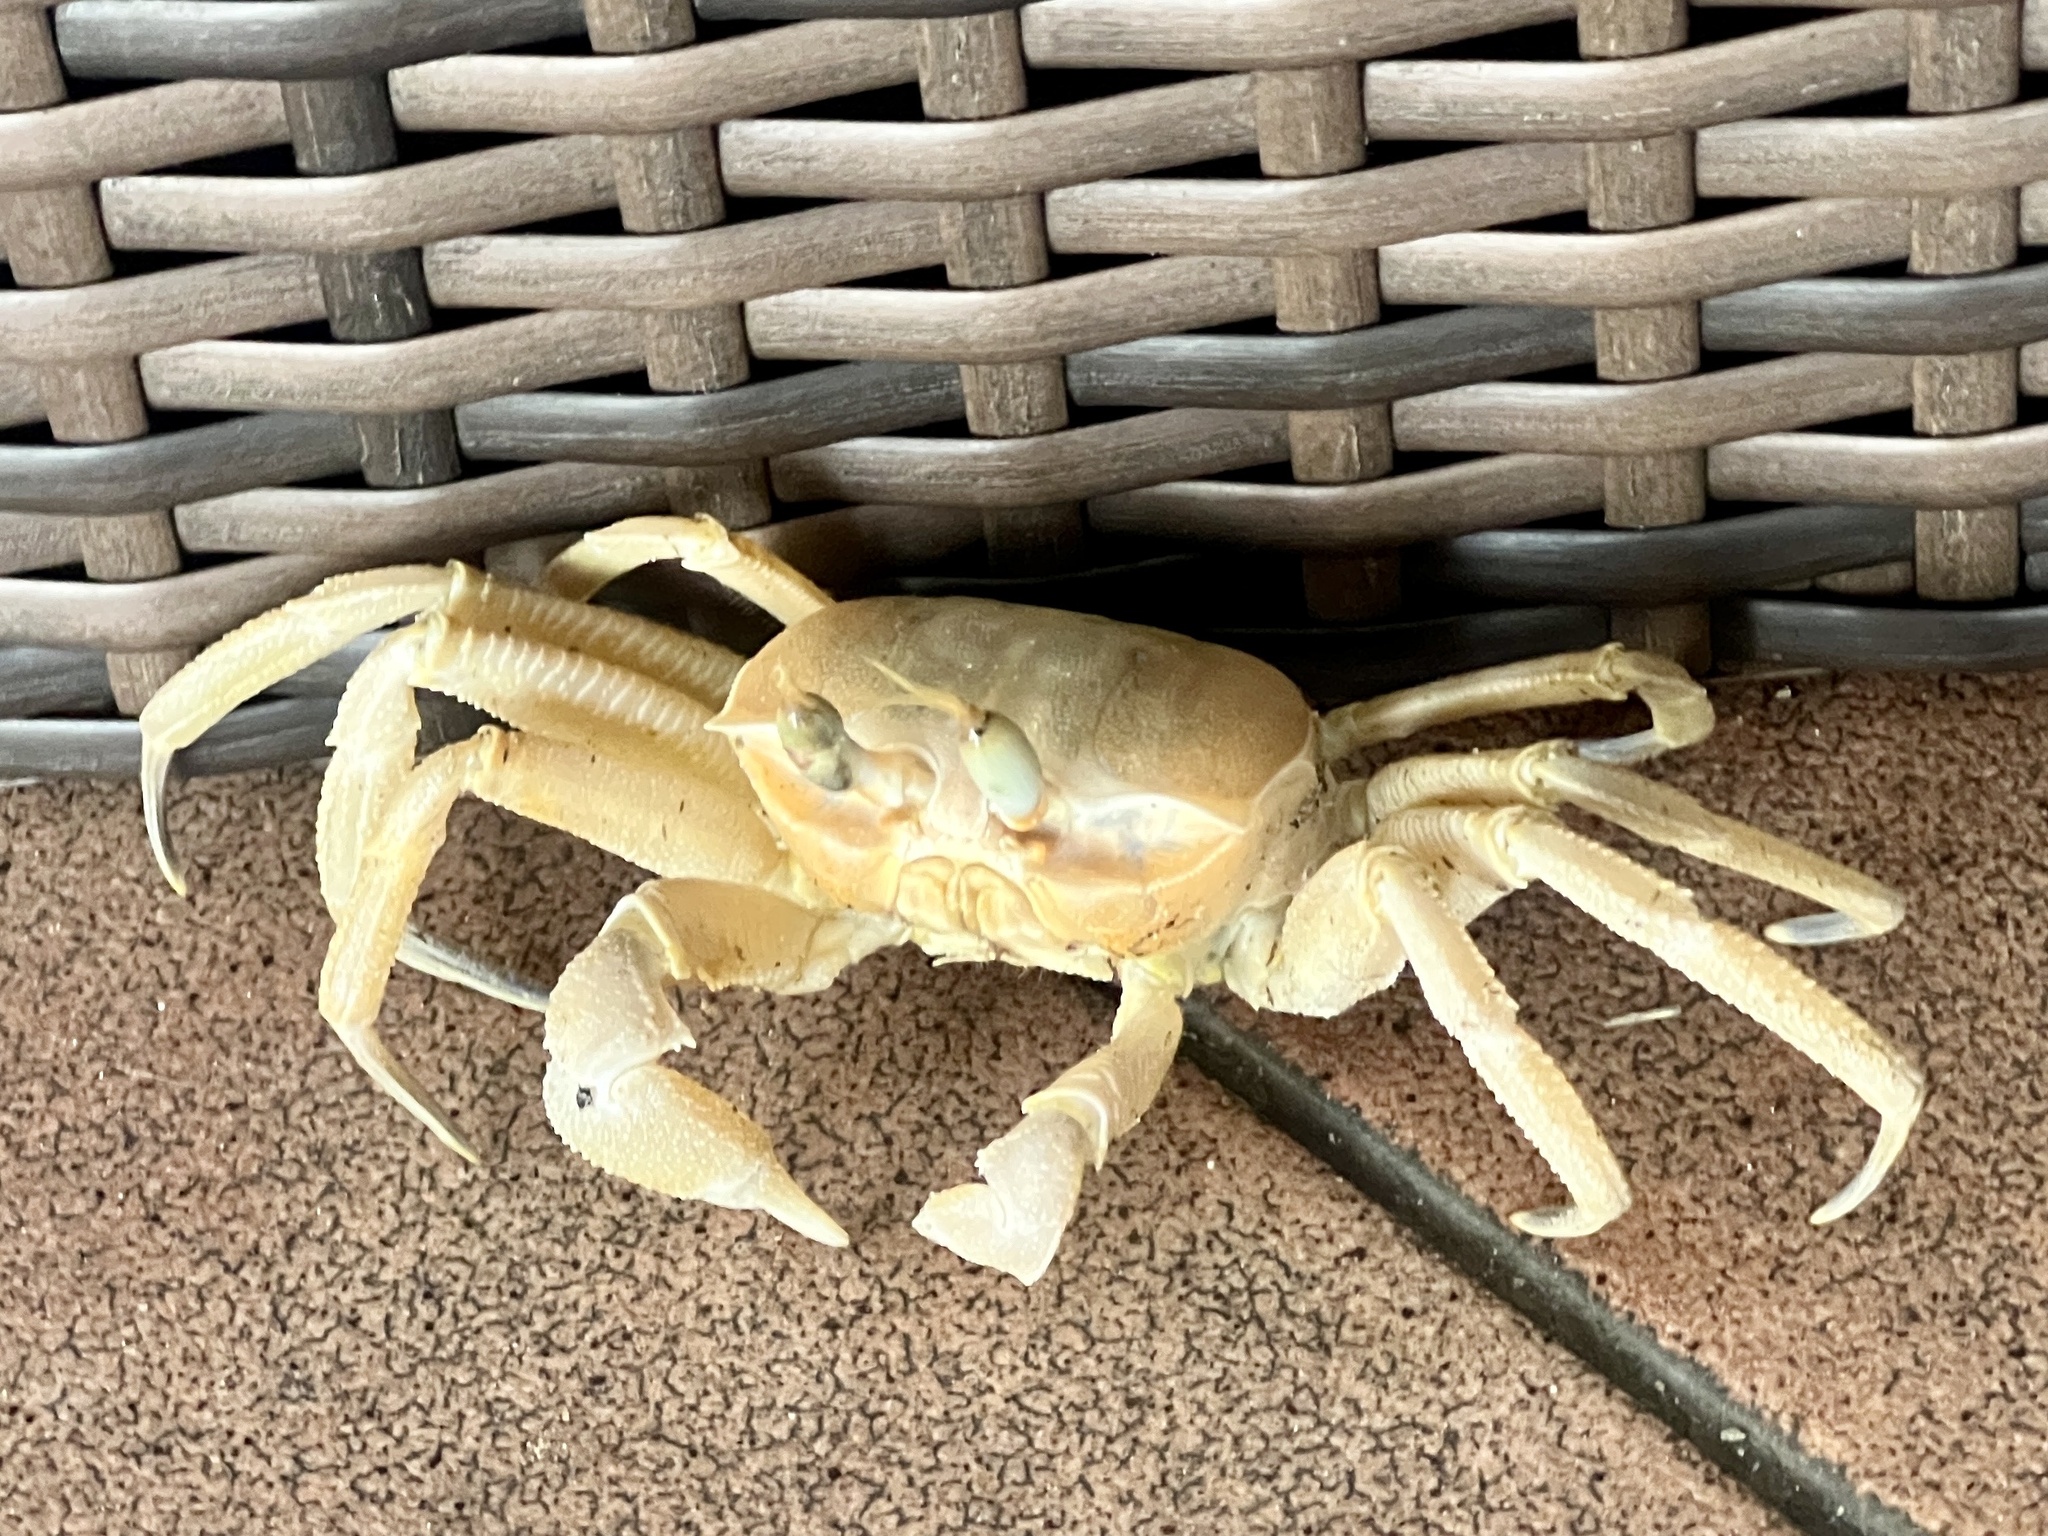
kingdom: Animalia
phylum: Arthropoda
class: Malacostraca
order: Decapoda
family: Ocypodidae
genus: Ocypode
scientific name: Ocypode cursor
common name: Tufted ghost crab
